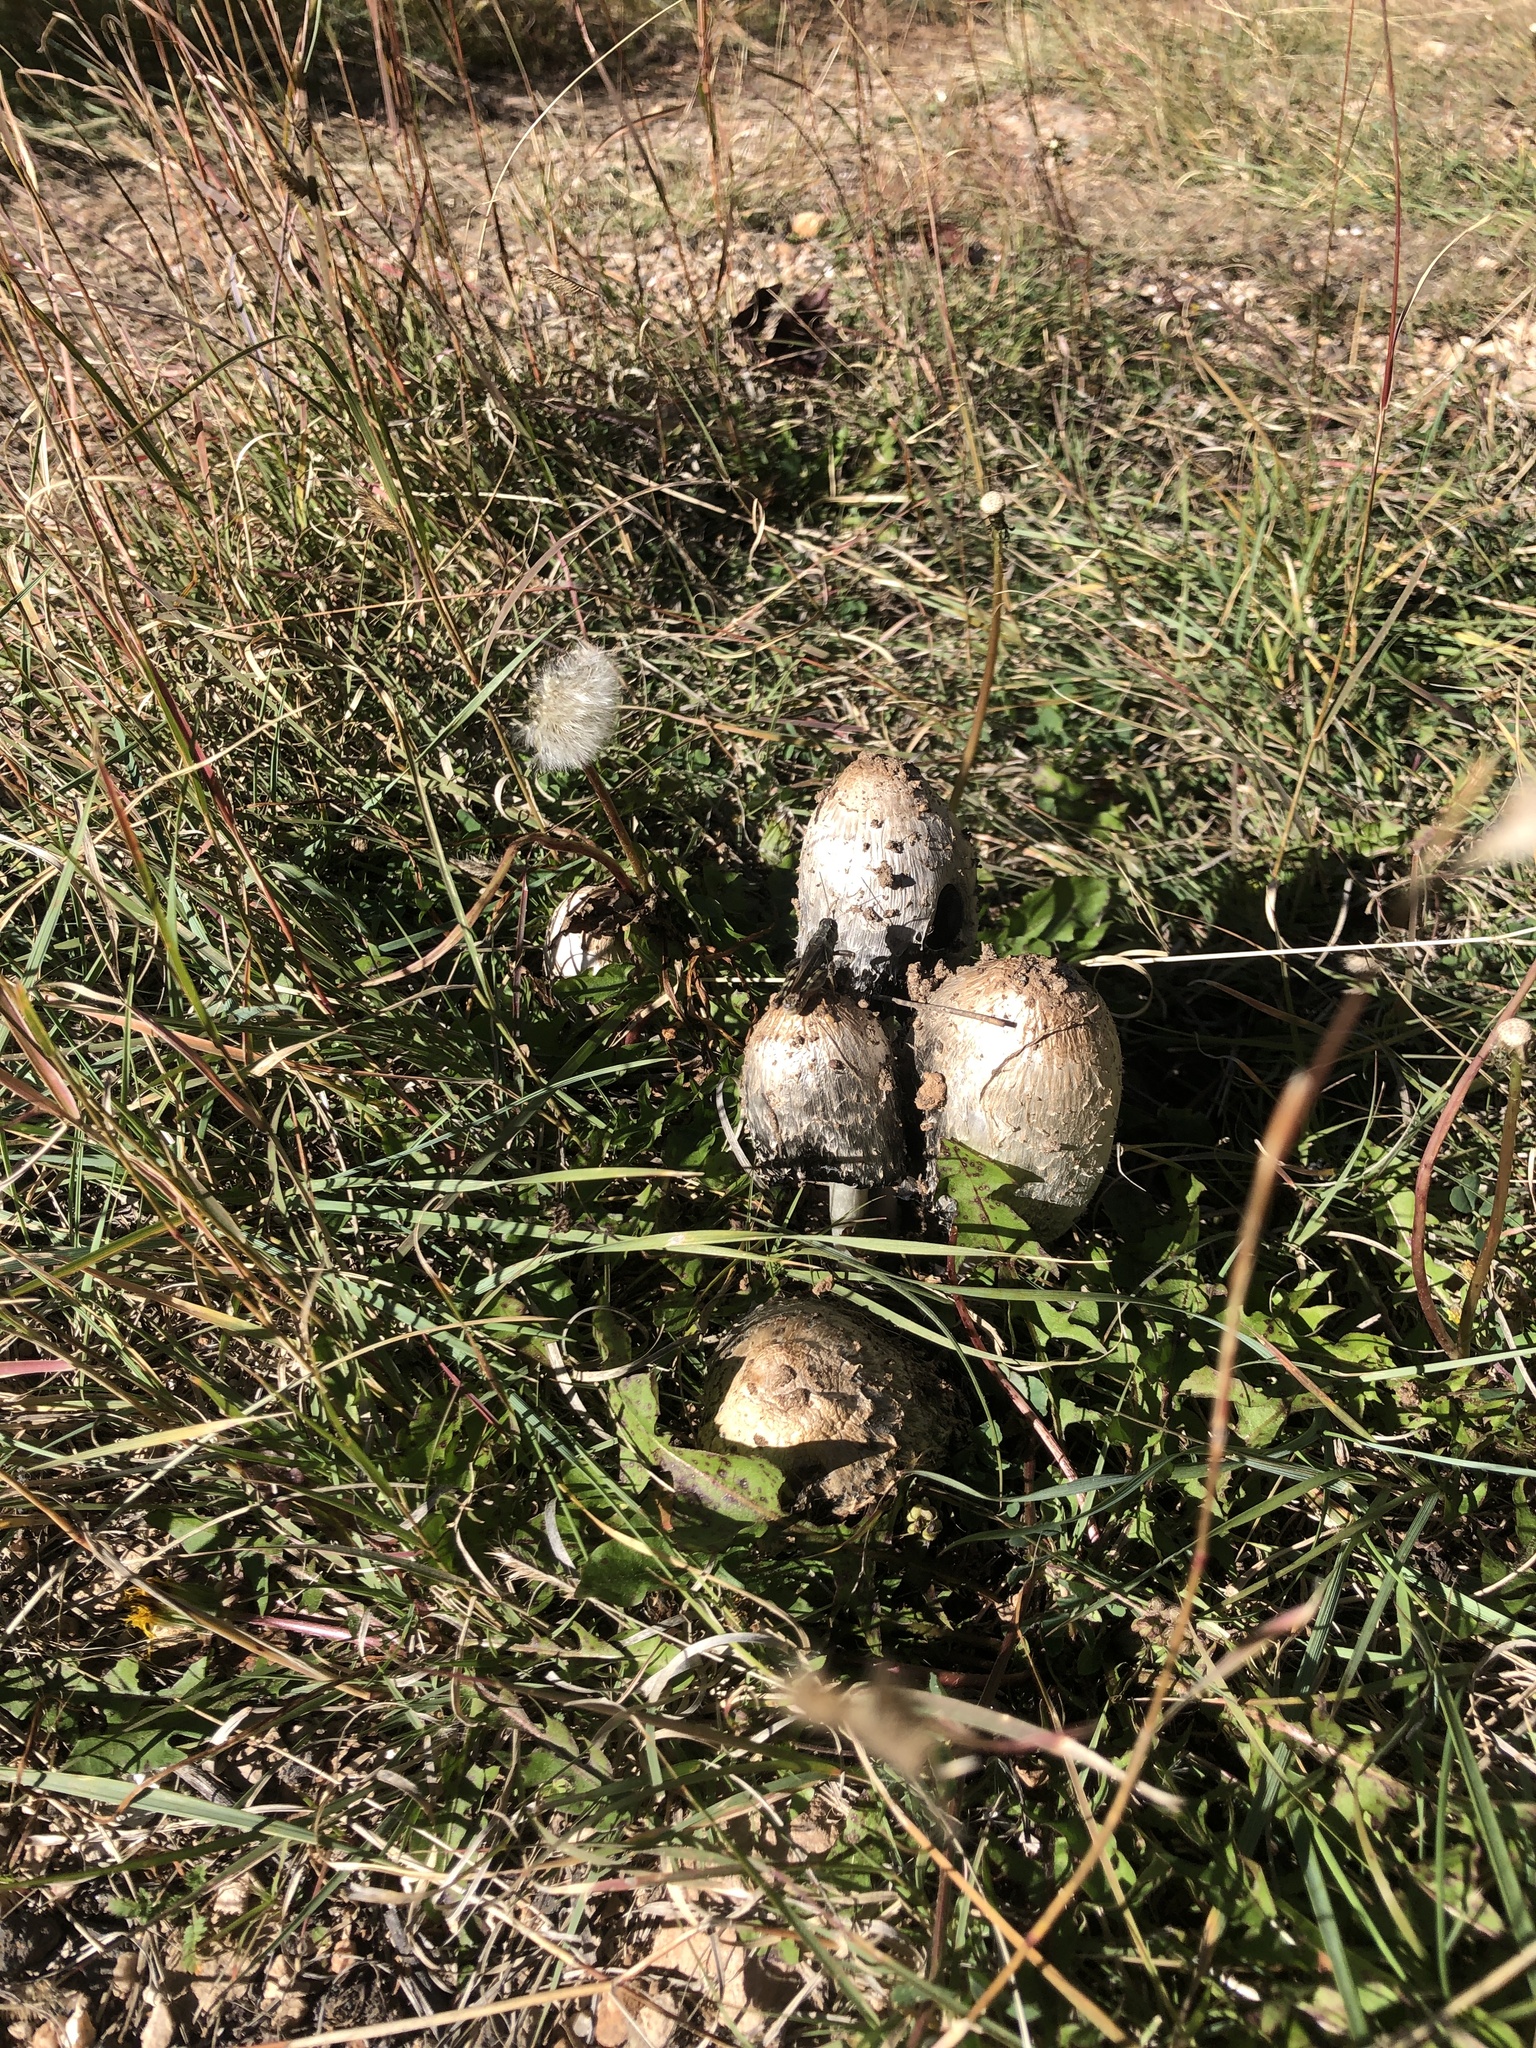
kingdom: Fungi
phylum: Basidiomycota
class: Agaricomycetes
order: Agaricales
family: Agaricaceae
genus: Coprinus
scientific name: Coprinus comatus
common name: Lawyer's wig
